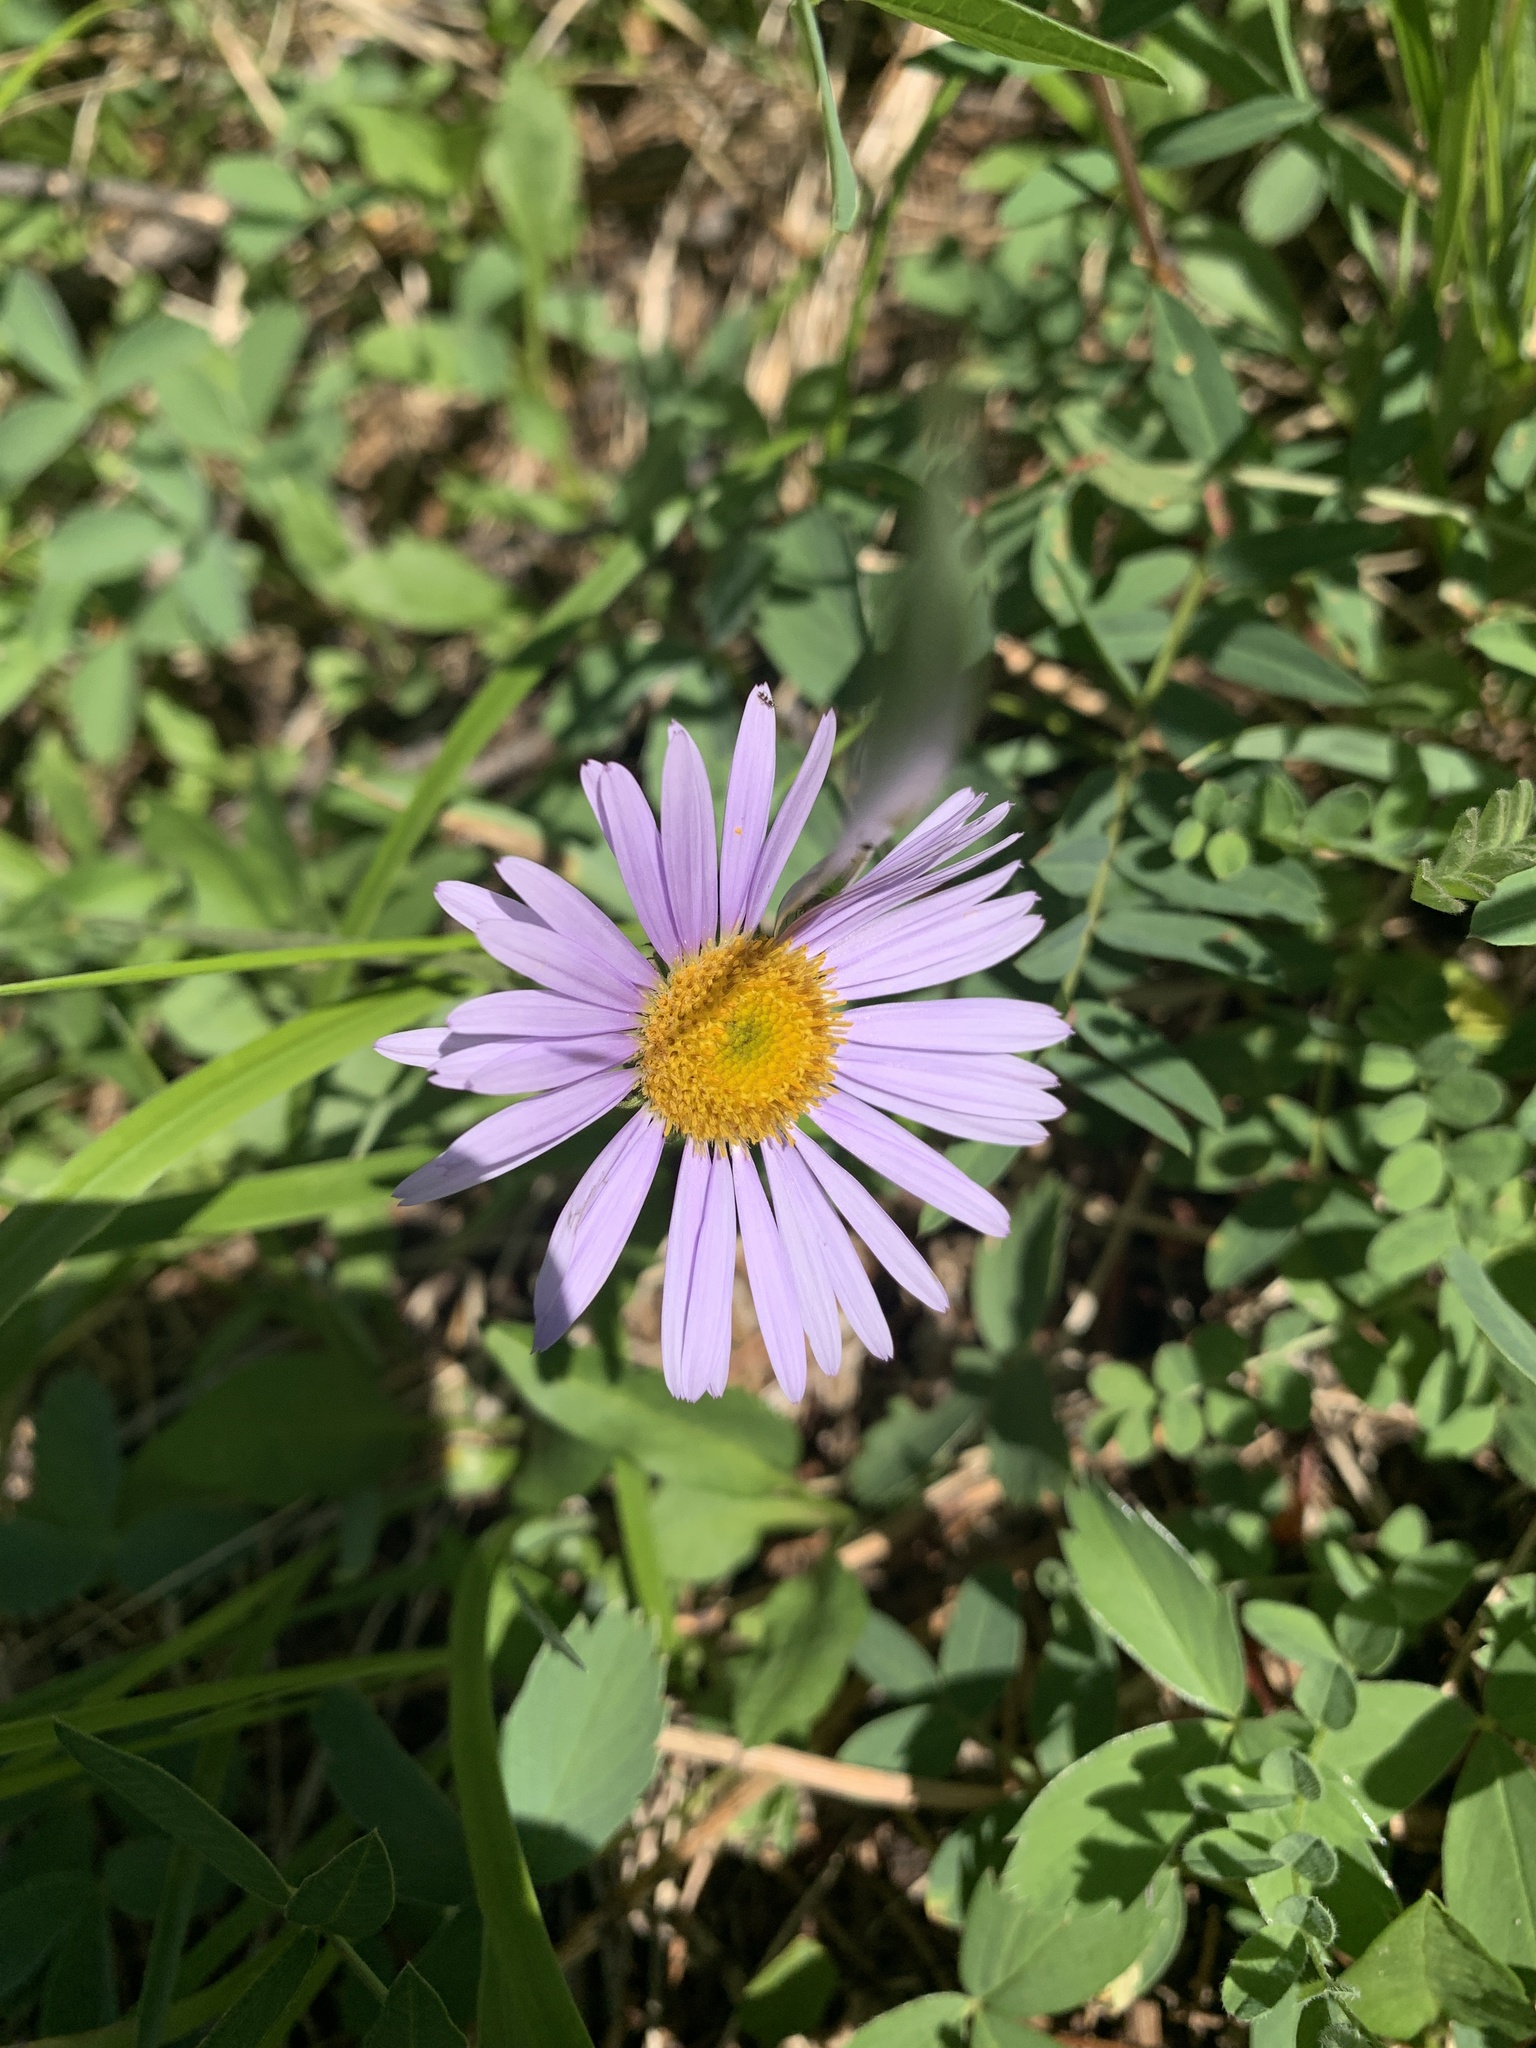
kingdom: Plantae
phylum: Tracheophyta
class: Magnoliopsida
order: Asterales
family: Asteraceae
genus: Erigeron
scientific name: Erigeron glacialis
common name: Subalpine fleabane
